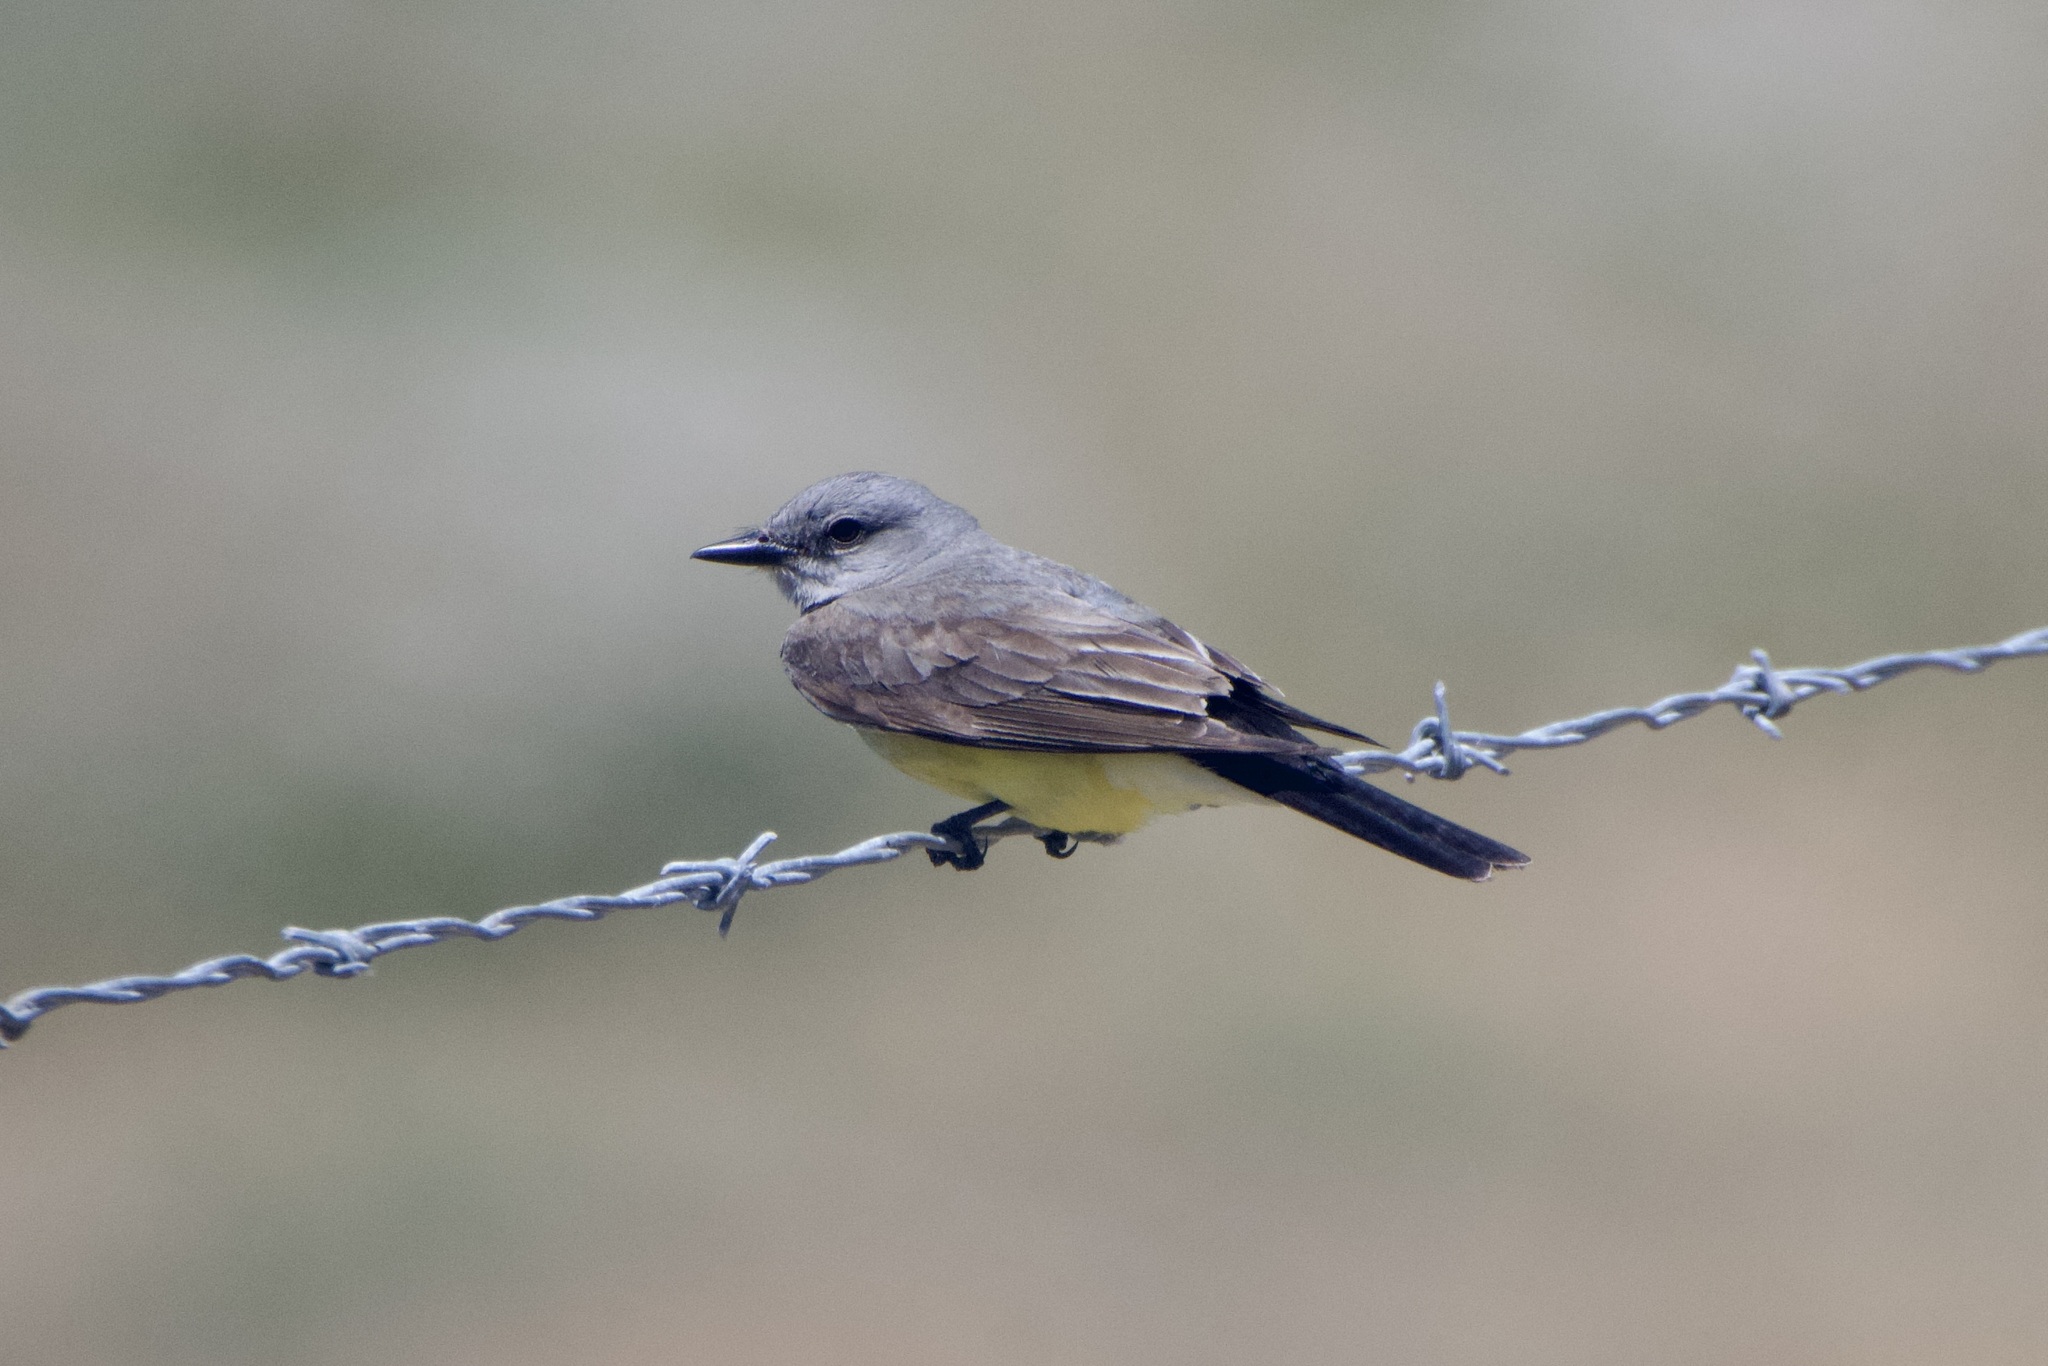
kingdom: Animalia
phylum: Chordata
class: Aves
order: Passeriformes
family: Tyrannidae
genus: Tyrannus
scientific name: Tyrannus verticalis
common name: Western kingbird
